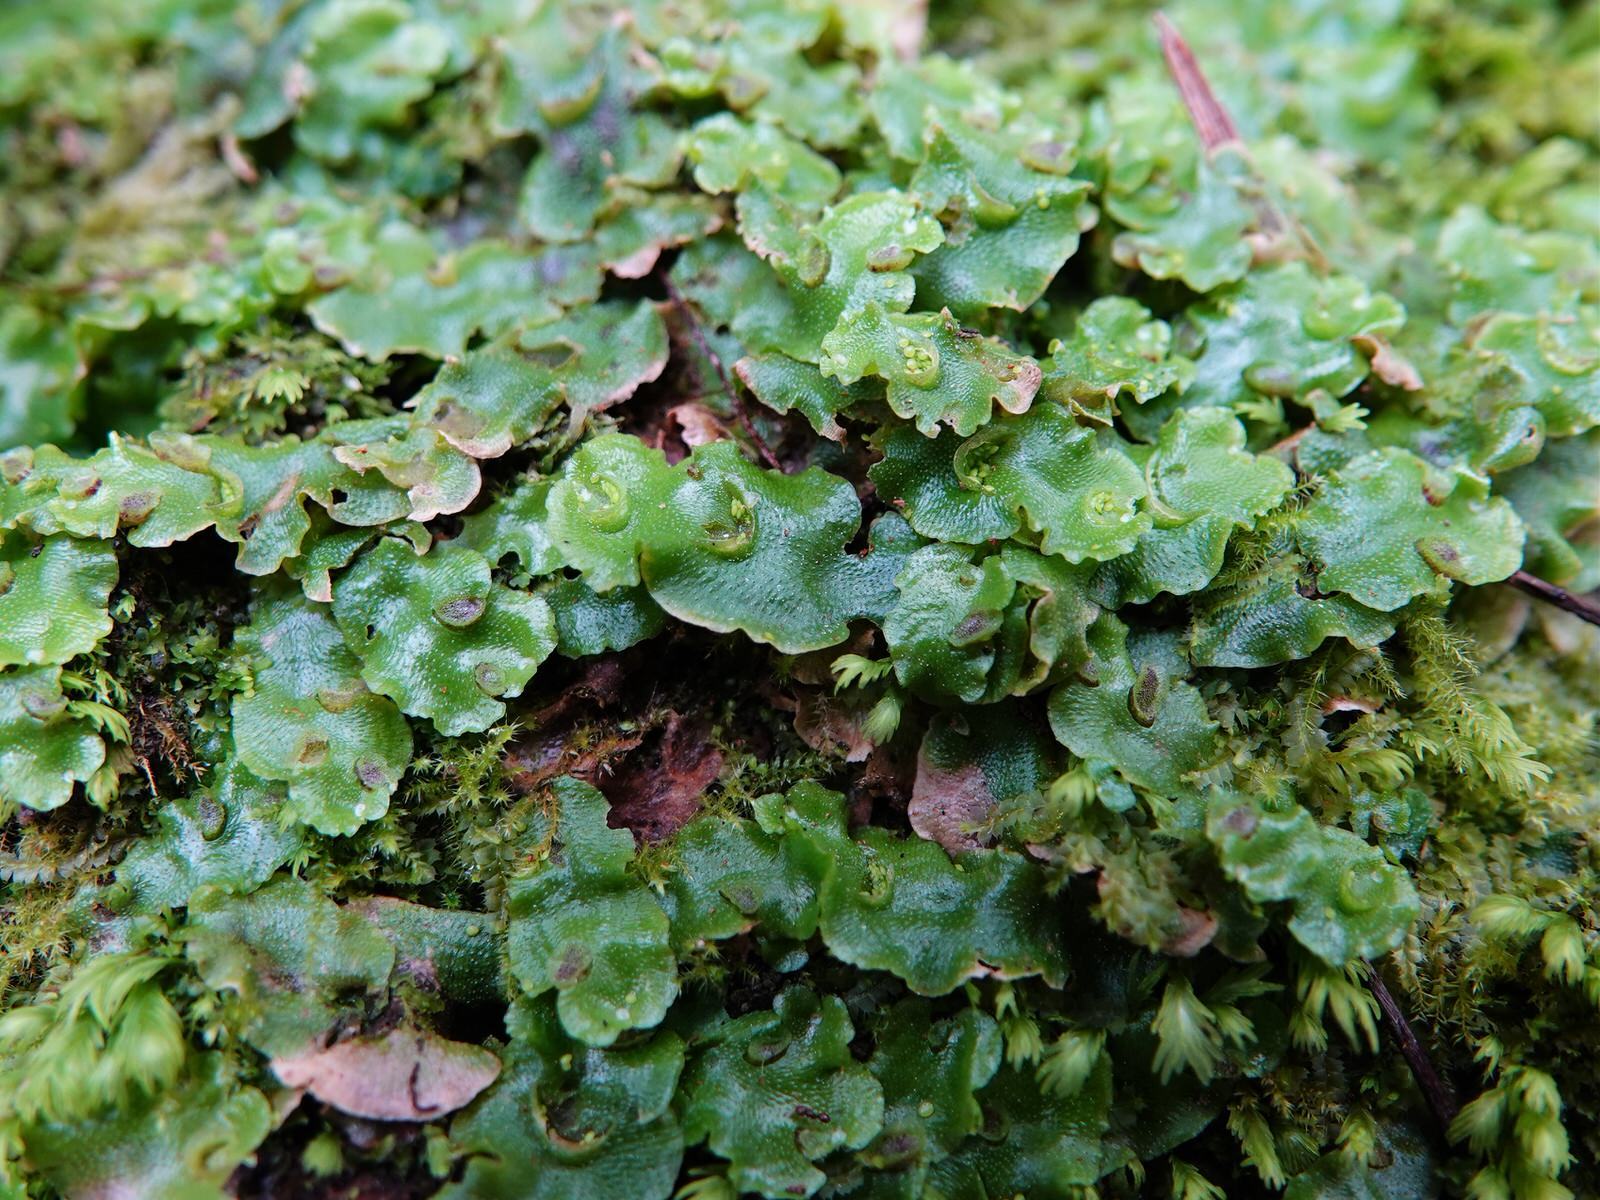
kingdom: Plantae
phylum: Marchantiophyta
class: Marchantiopsida
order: Lunulariales
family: Lunulariaceae
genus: Lunularia
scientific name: Lunularia cruciata
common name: Crescent-cup liverwort
